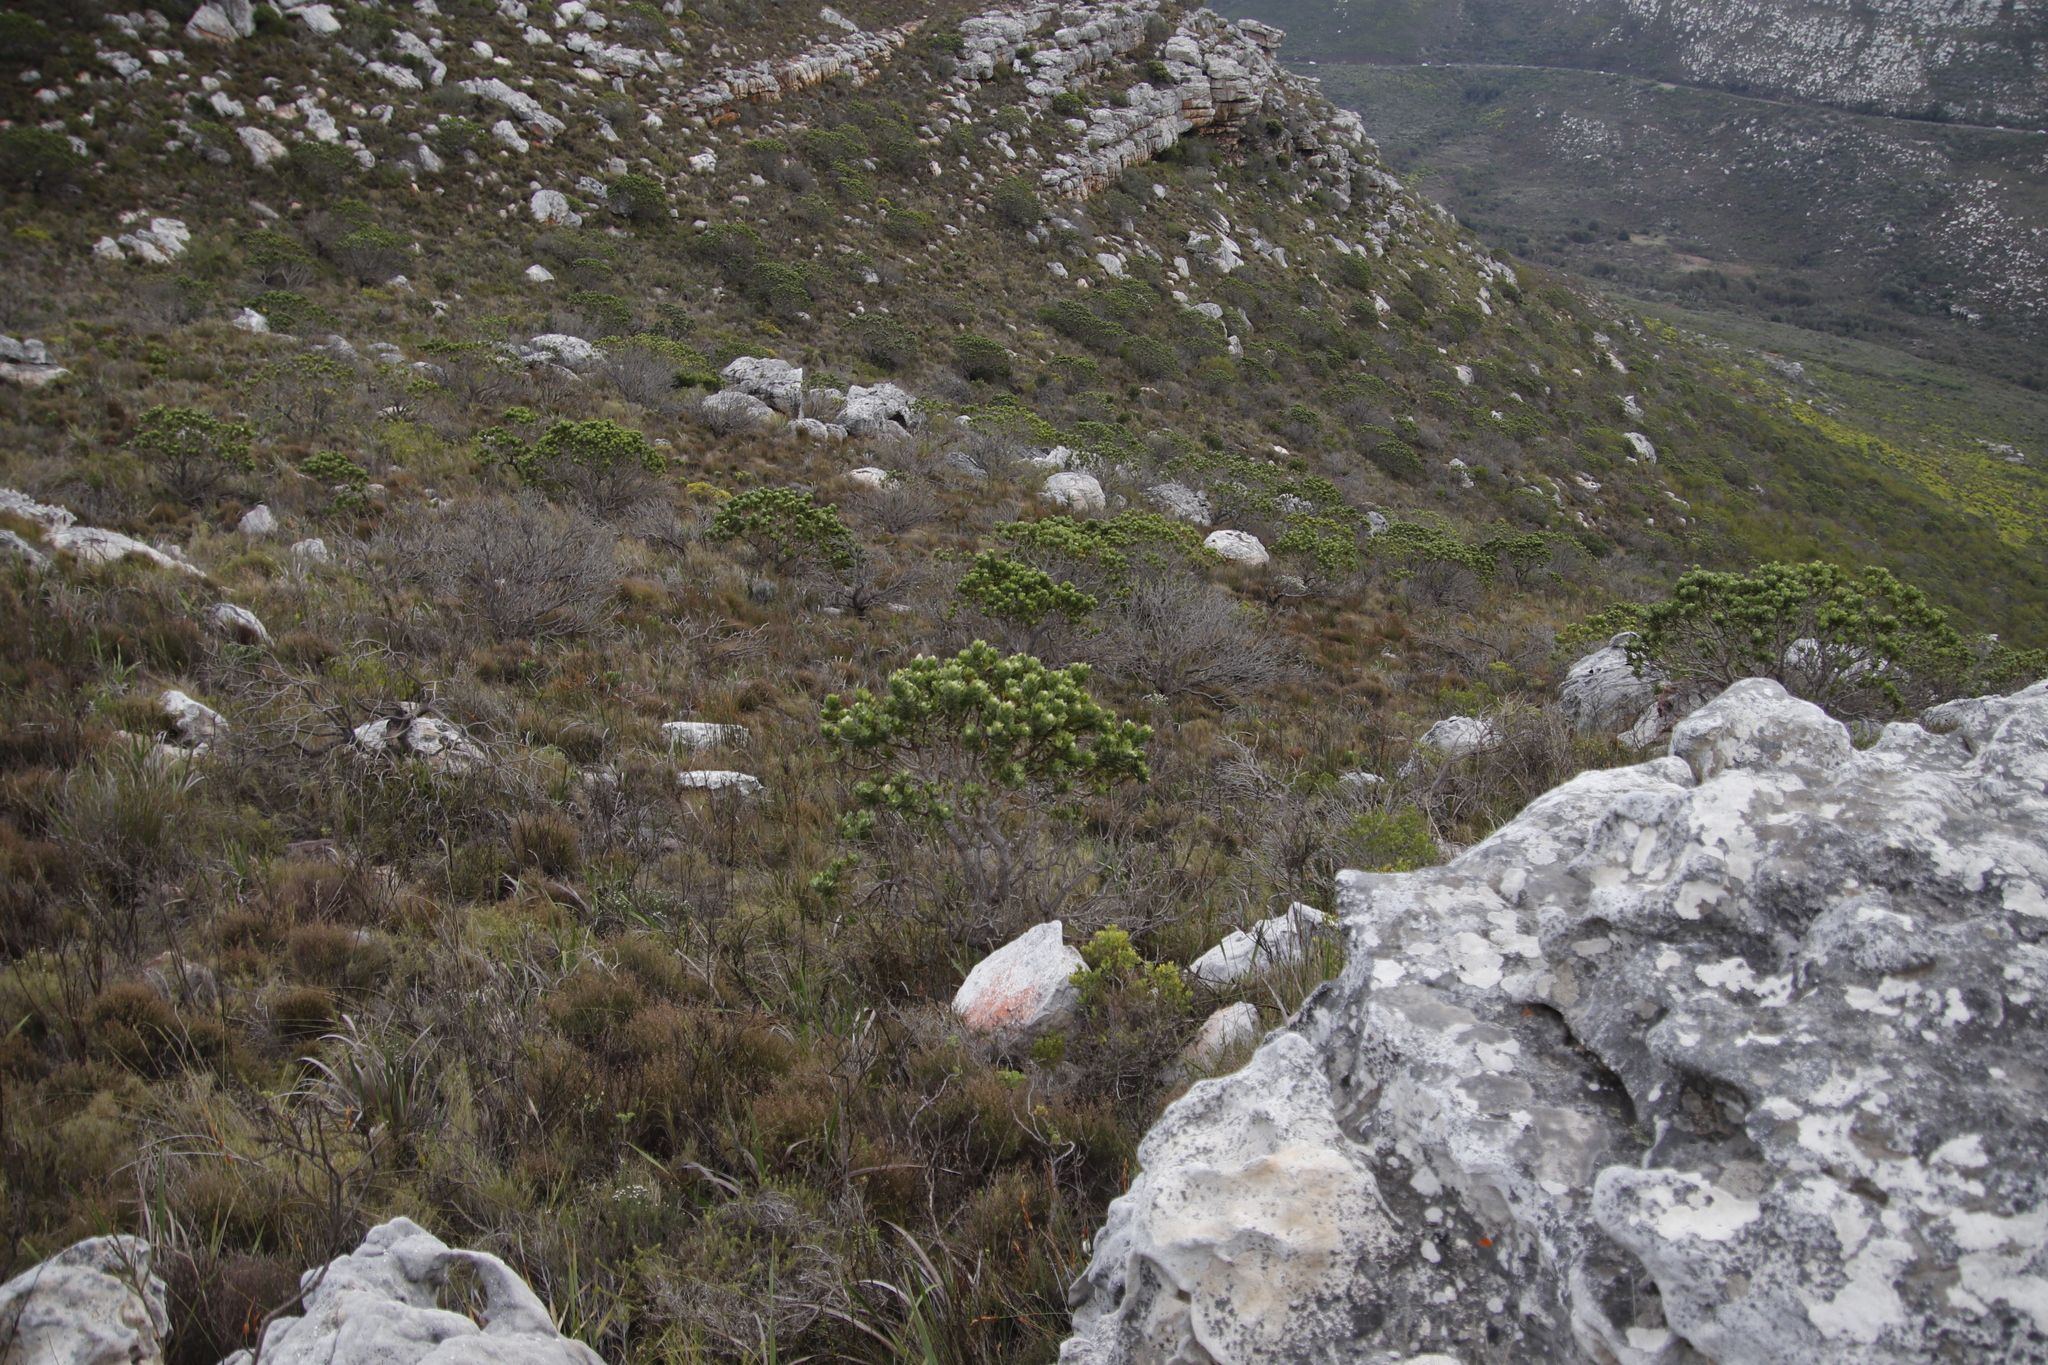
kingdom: Plantae
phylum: Tracheophyta
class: Magnoliopsida
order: Proteales
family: Proteaceae
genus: Leucospermum
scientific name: Leucospermum conocarpodendron
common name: Tree pincushion
